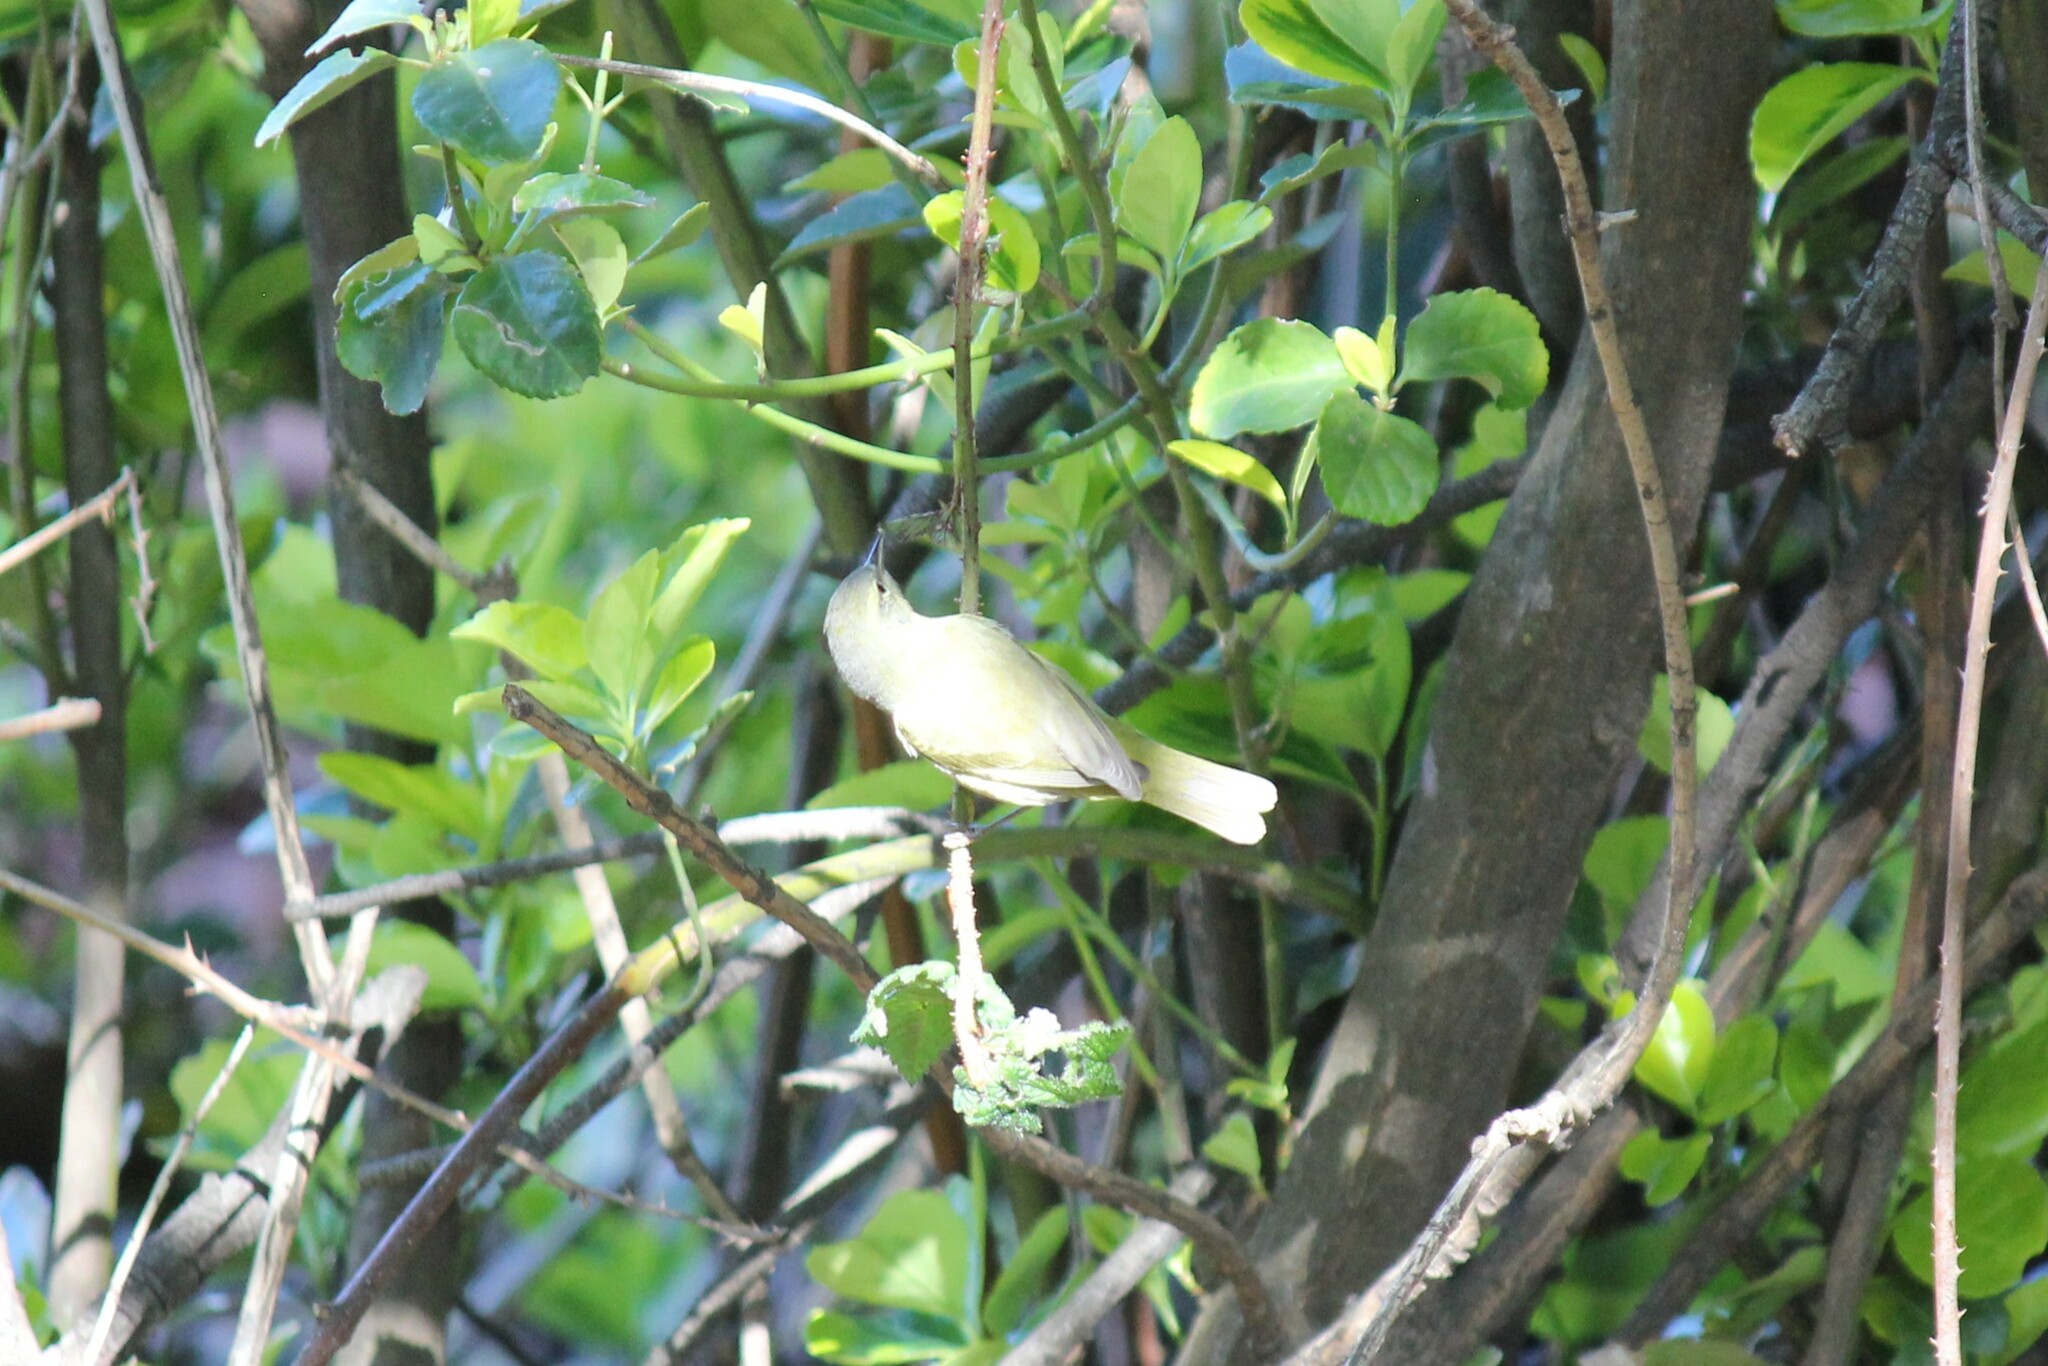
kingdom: Animalia
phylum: Chordata
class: Aves
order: Passeriformes
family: Parulidae
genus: Leiothlypis
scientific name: Leiothlypis celata
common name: Orange-crowned warbler
